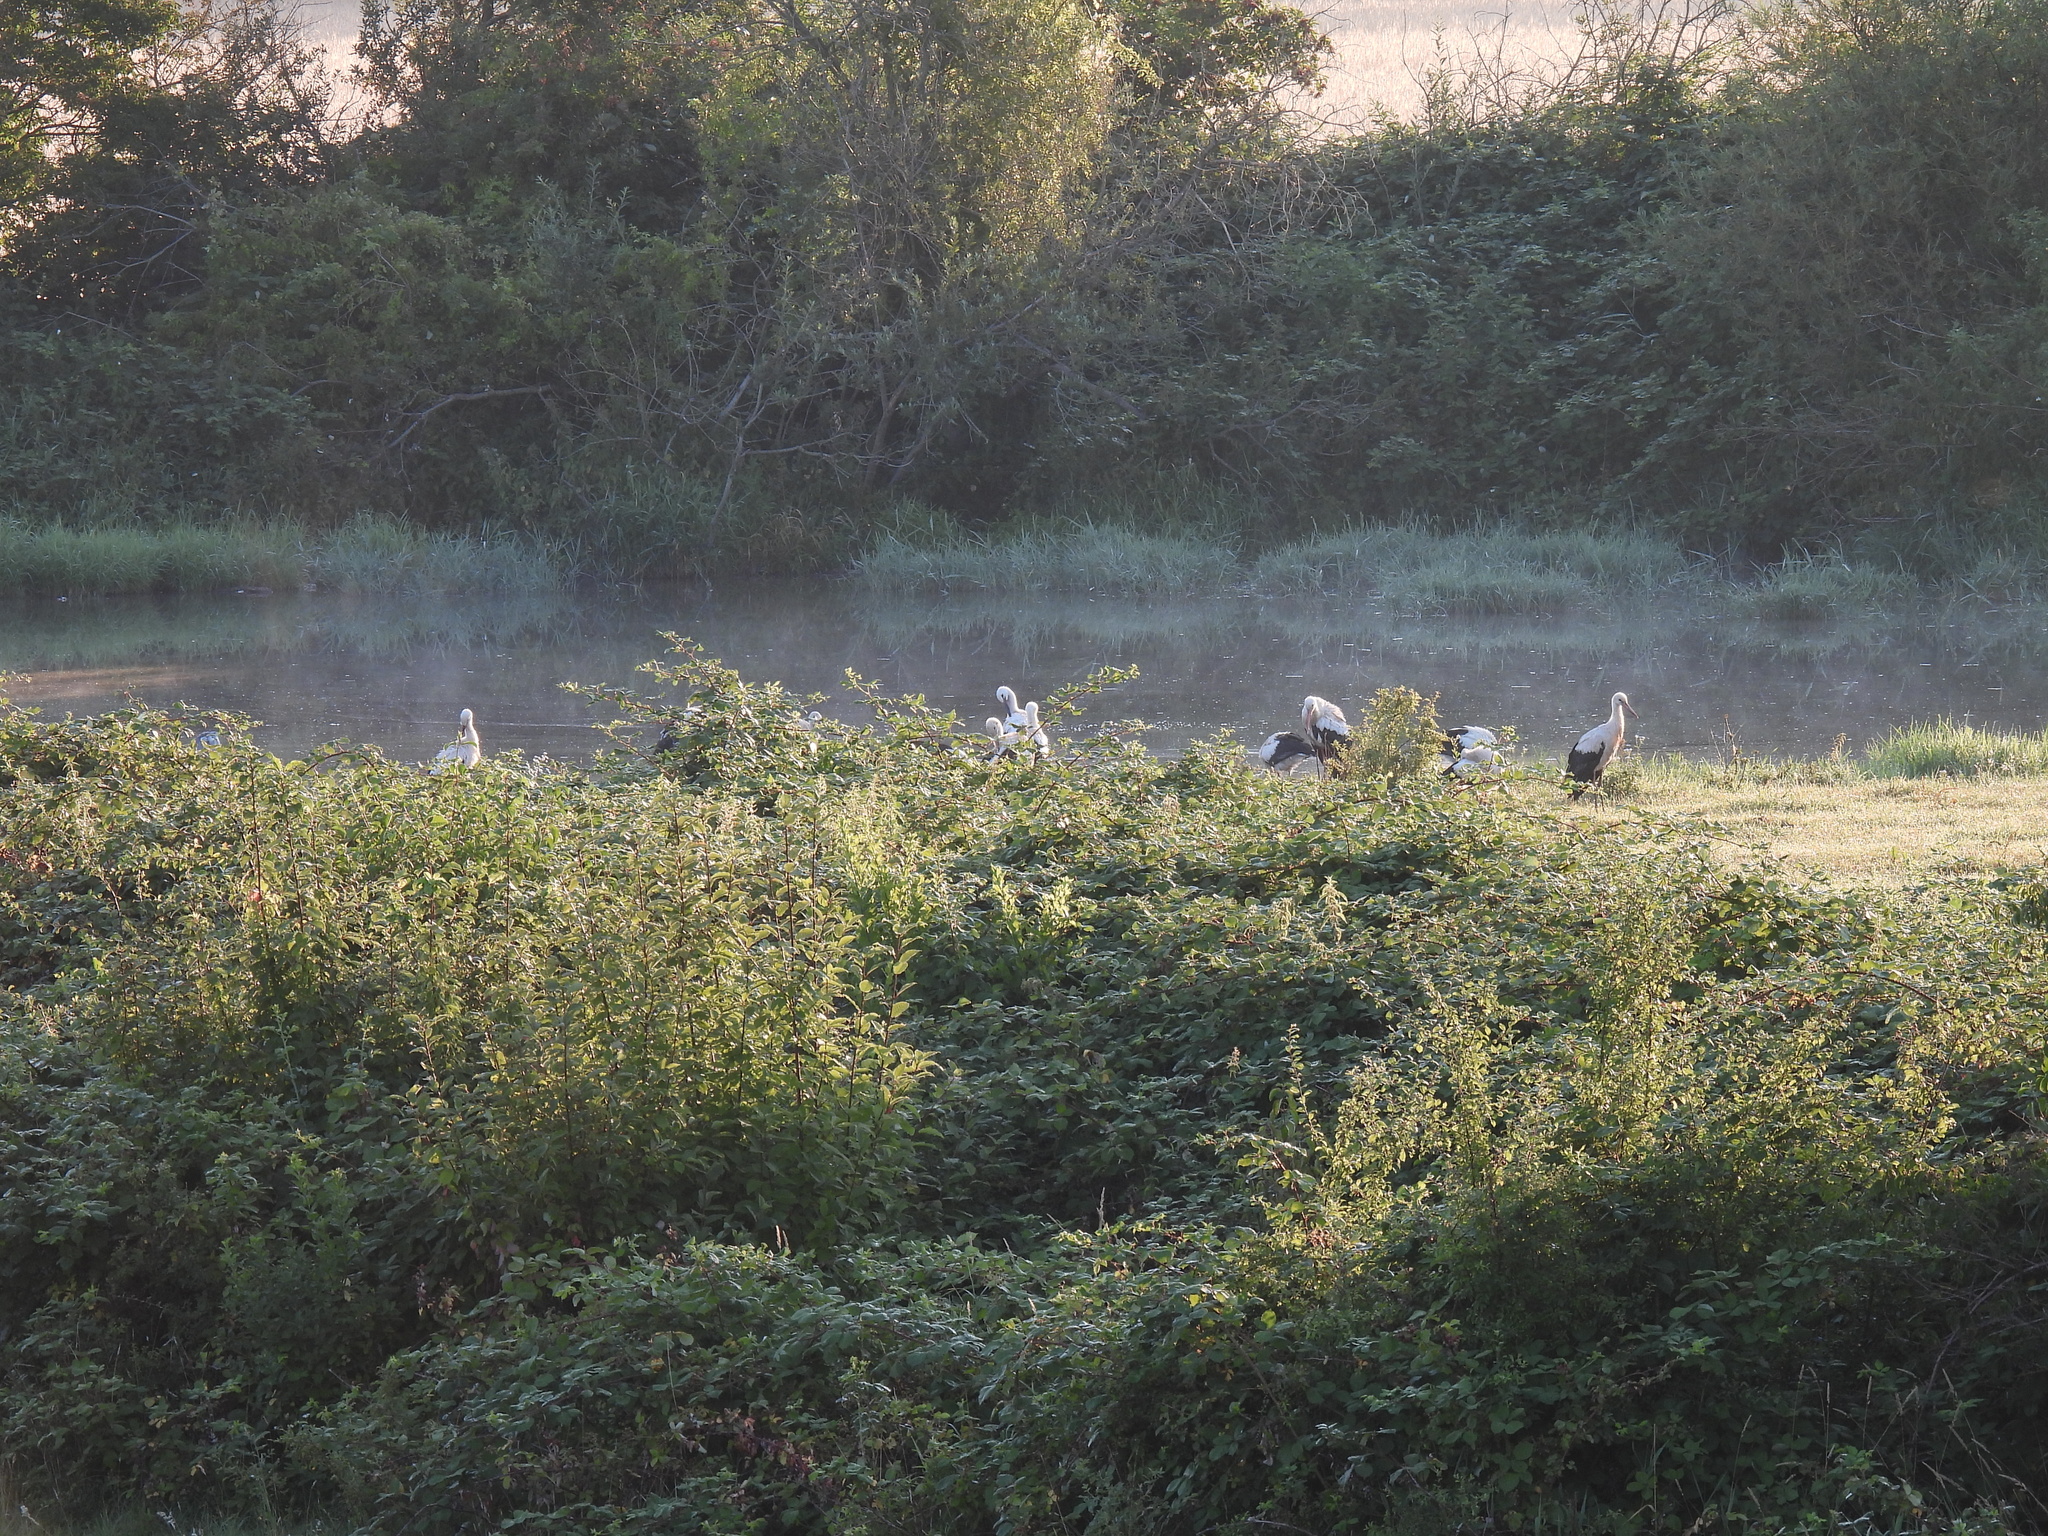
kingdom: Animalia
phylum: Chordata
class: Aves
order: Ciconiiformes
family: Ciconiidae
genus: Ciconia
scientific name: Ciconia ciconia
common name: White stork
